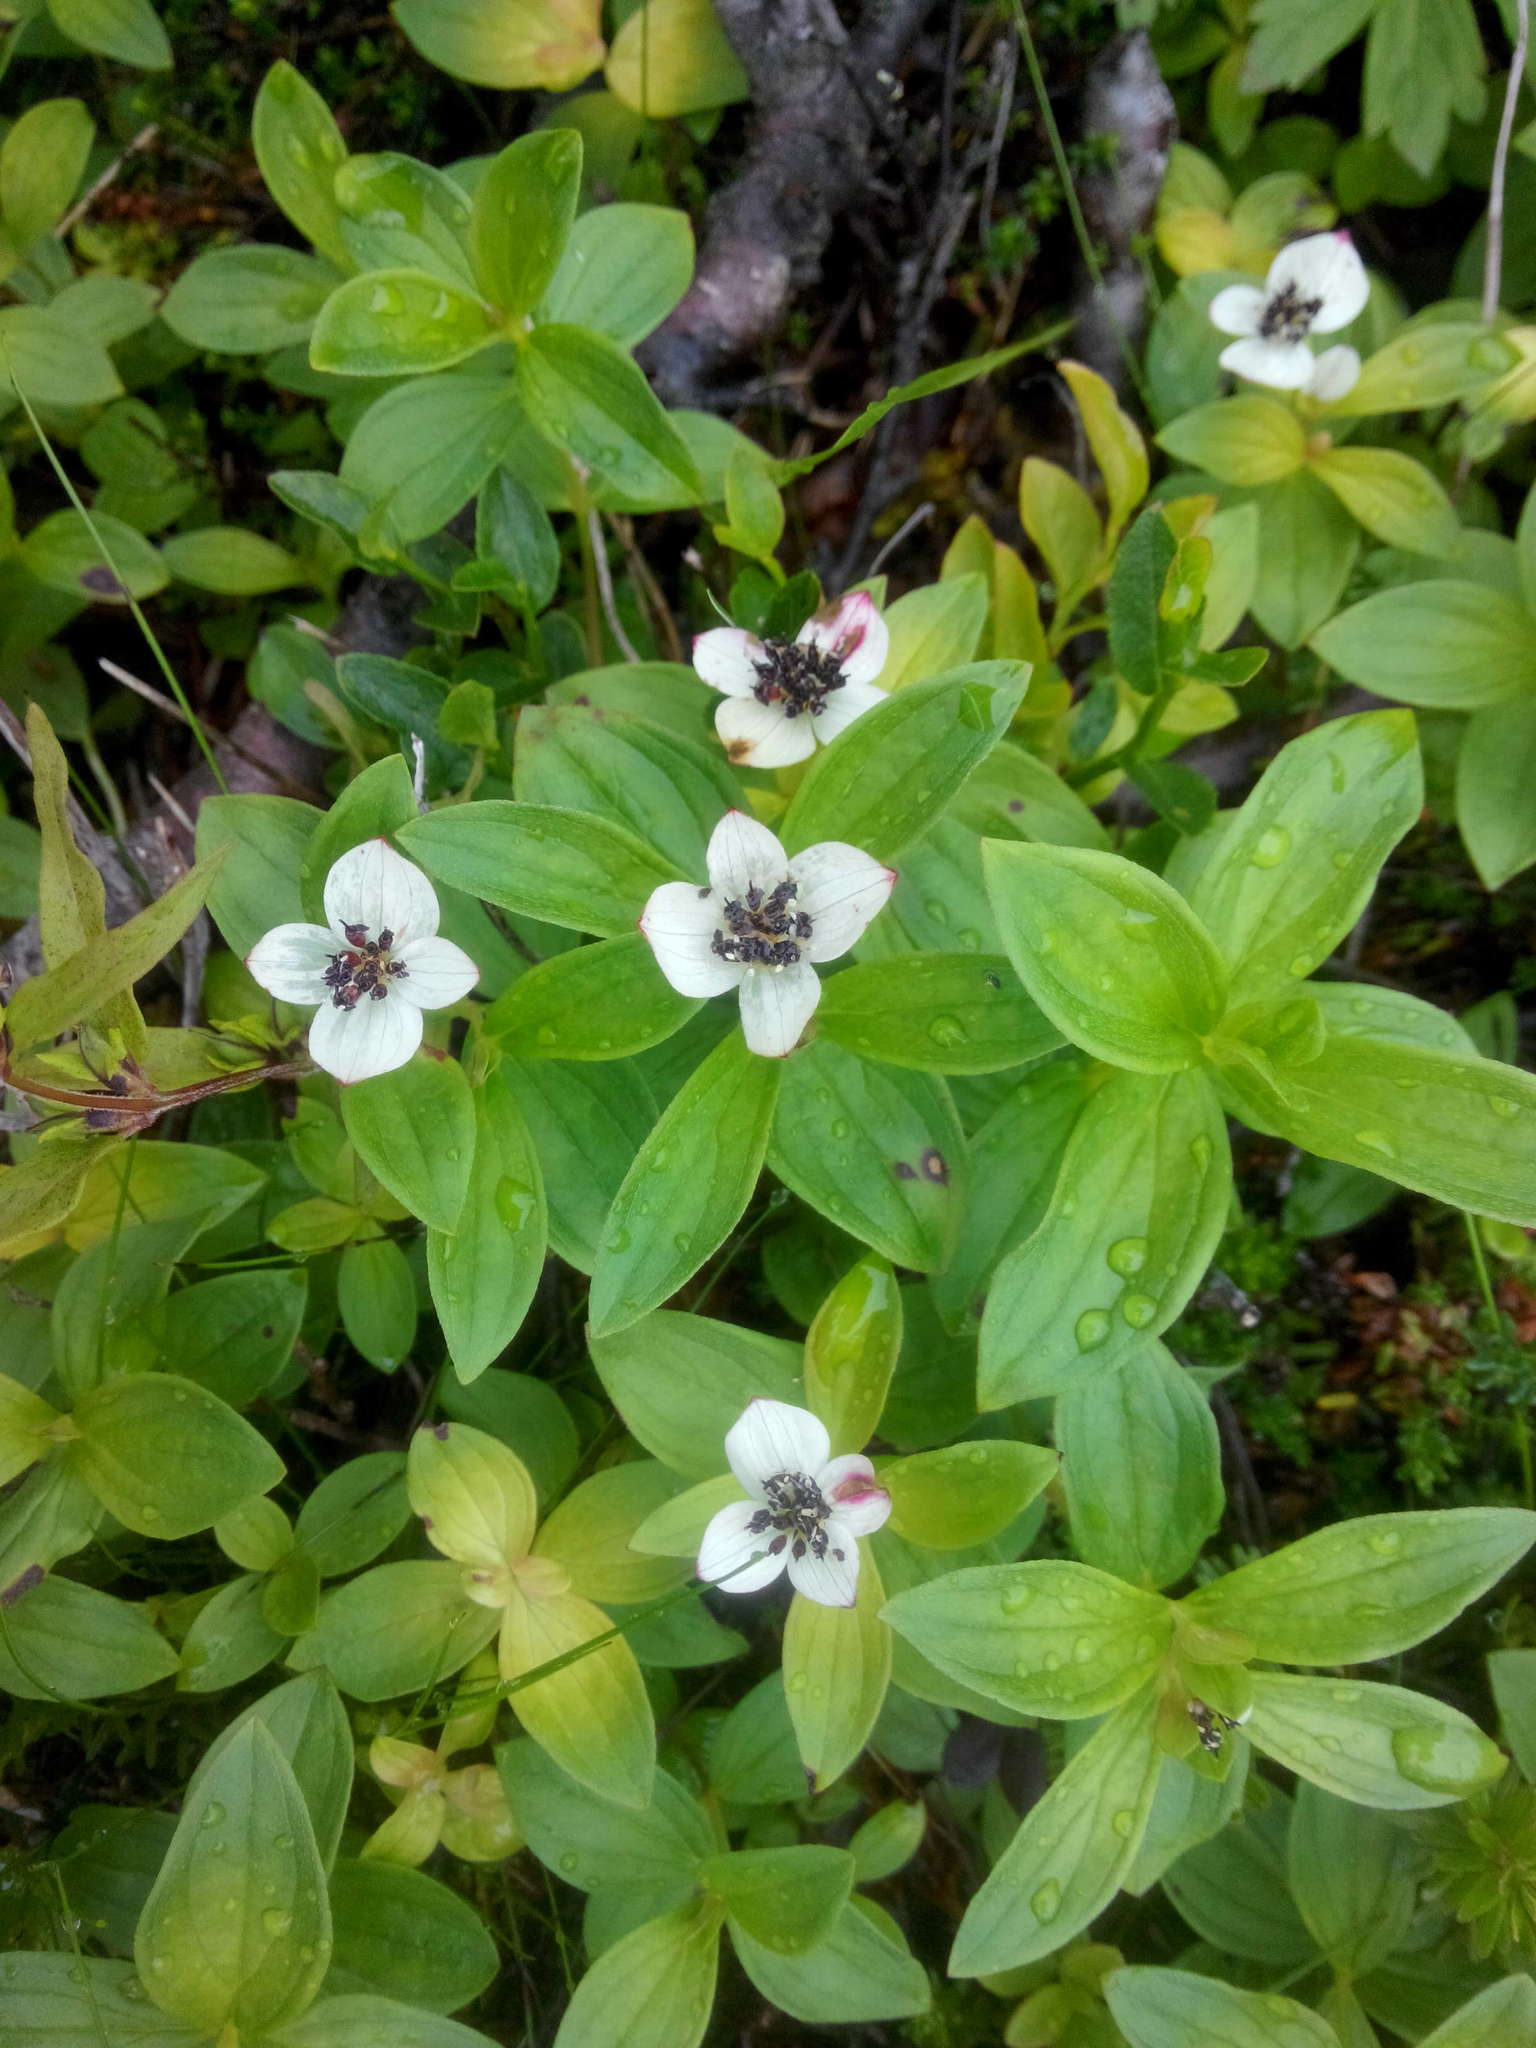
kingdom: Plantae
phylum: Tracheophyta
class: Magnoliopsida
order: Cornales
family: Cornaceae
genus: Cornus
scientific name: Cornus suecica
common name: Dwarf cornel
